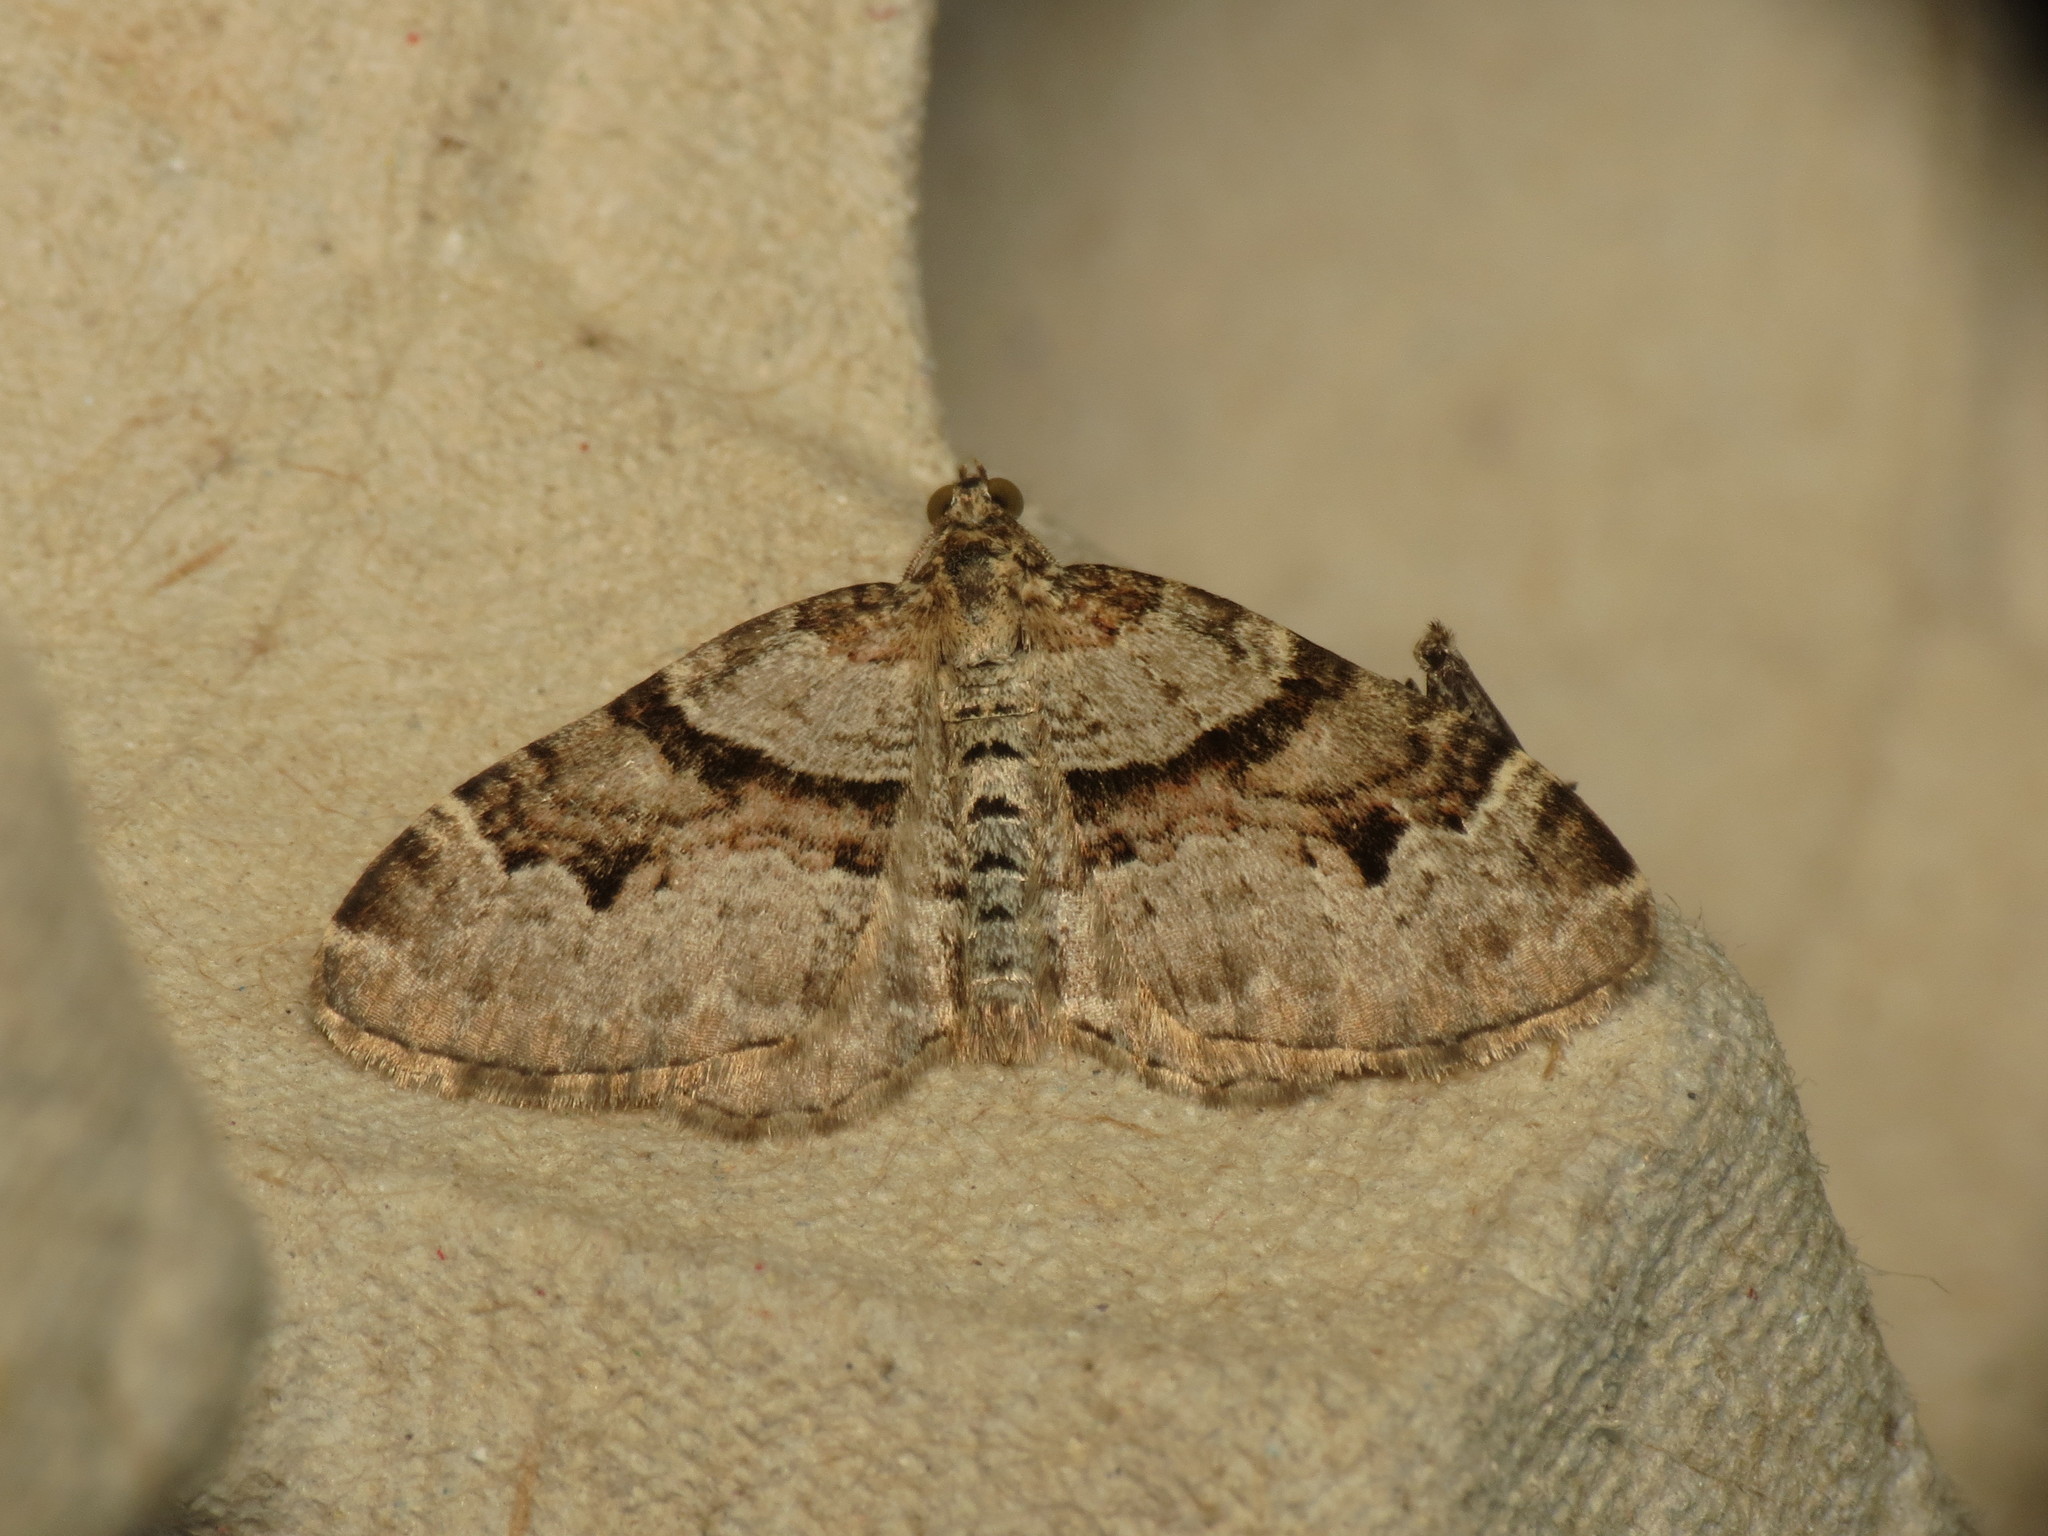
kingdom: Animalia
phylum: Arthropoda
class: Insecta
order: Lepidoptera
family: Geometridae
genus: Xanthorhoe
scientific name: Xanthorhoe designata
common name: Flame carpet
